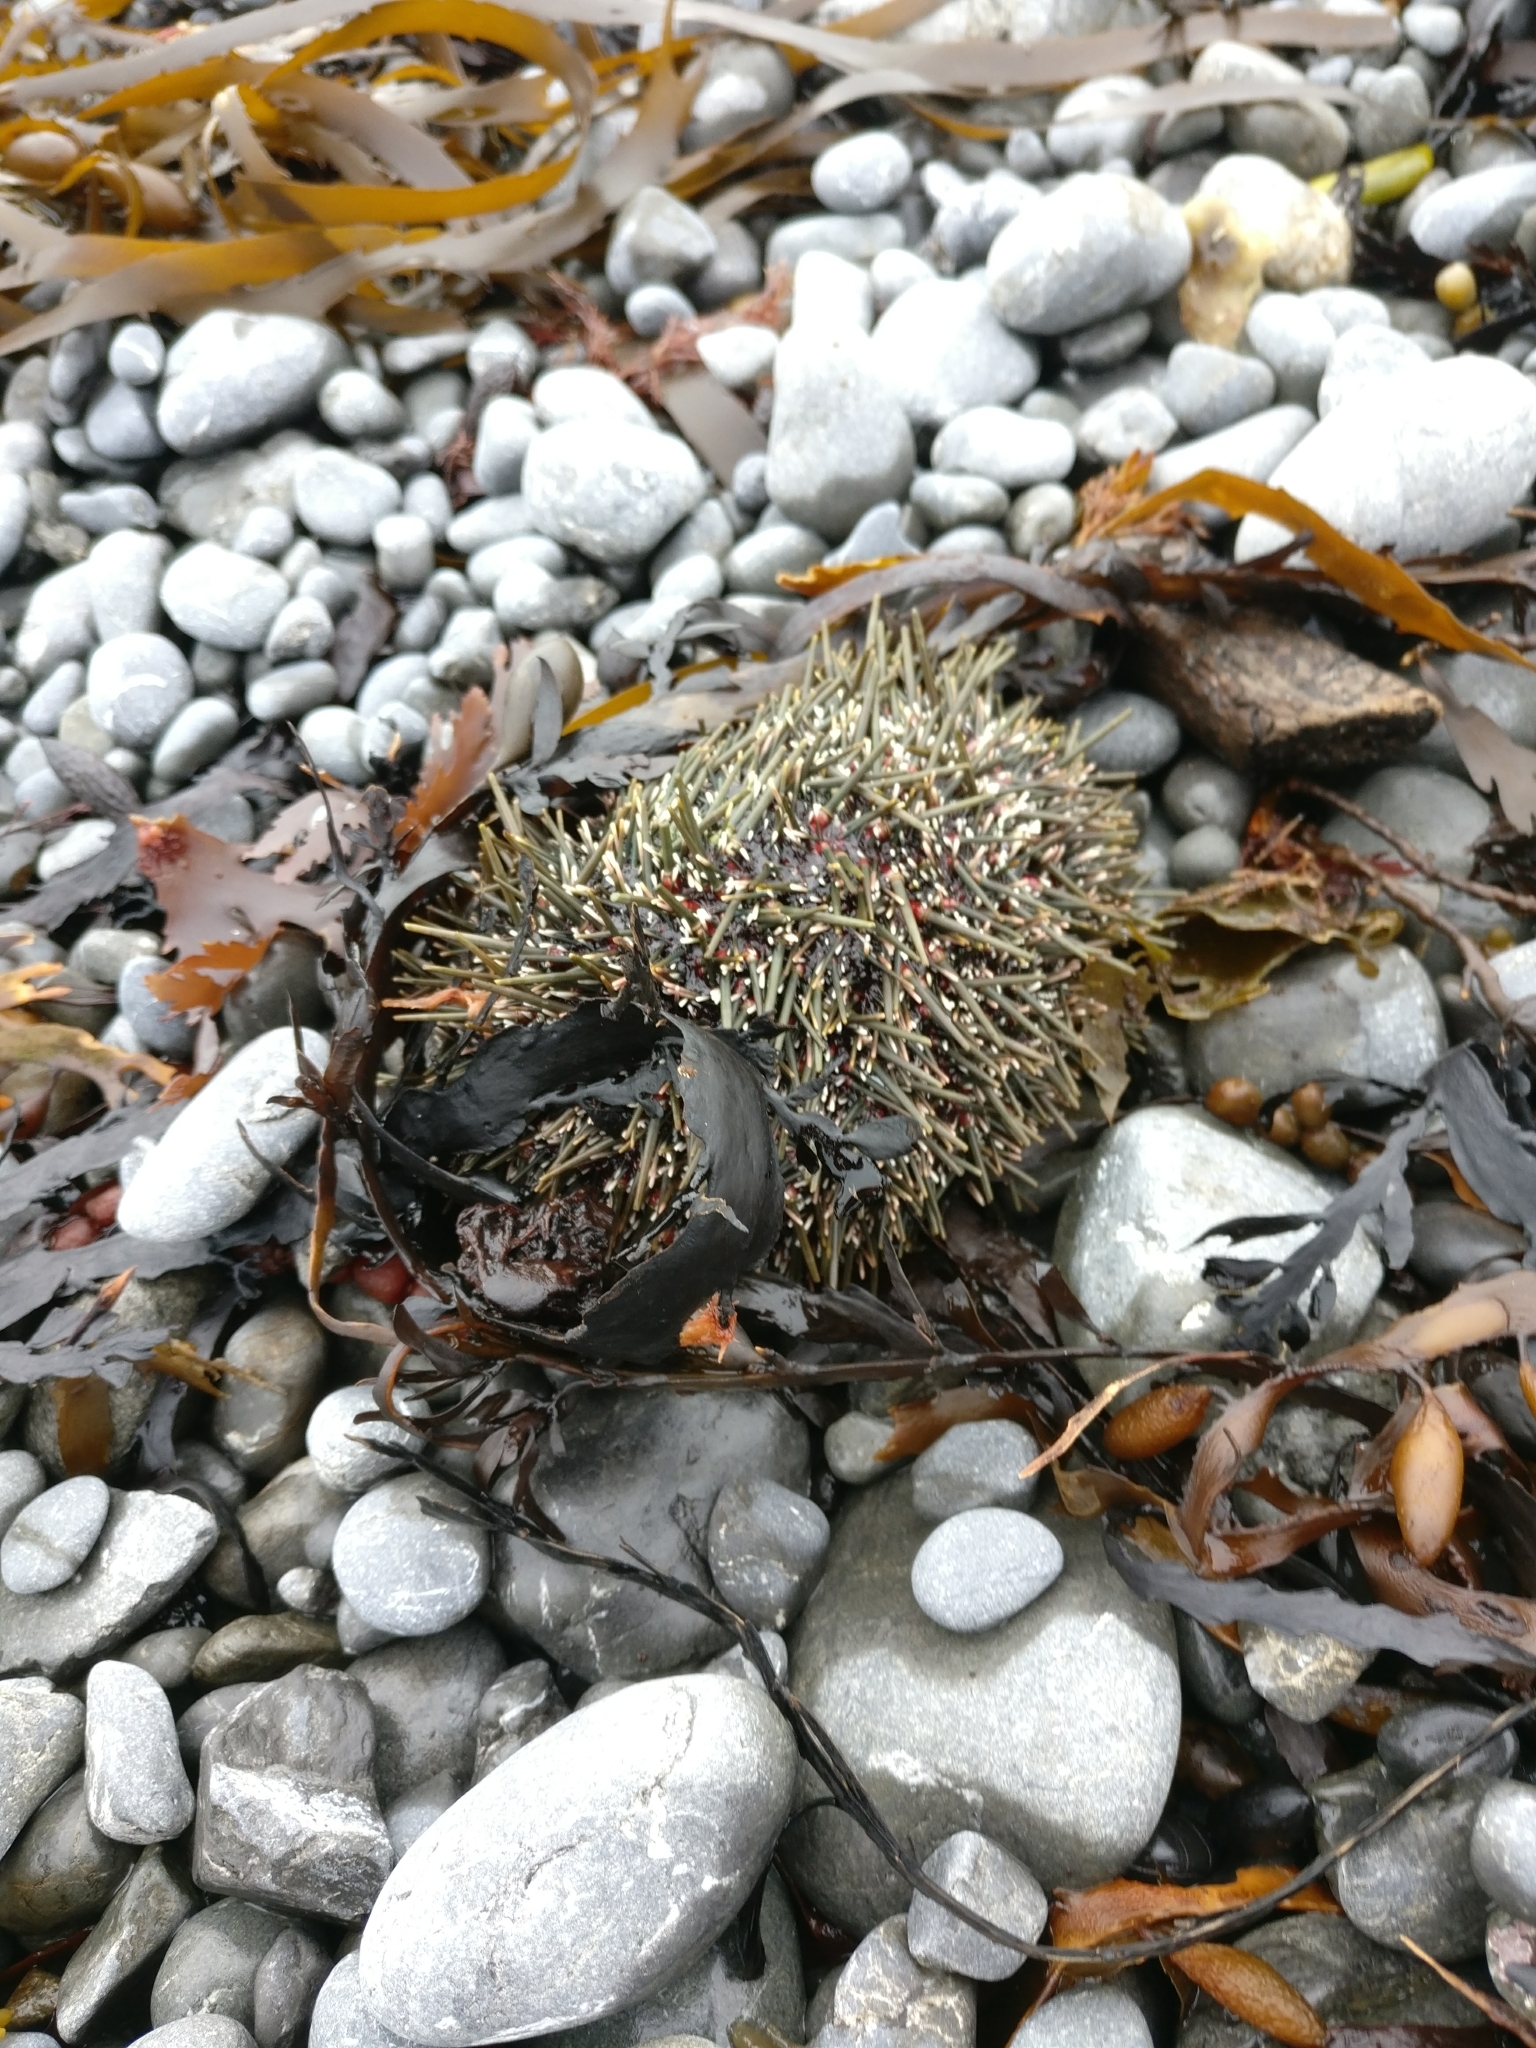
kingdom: Animalia
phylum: Echinodermata
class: Echinoidea
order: Camarodonta
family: Echinometridae
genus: Evechinus
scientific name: Evechinus chloroticus
